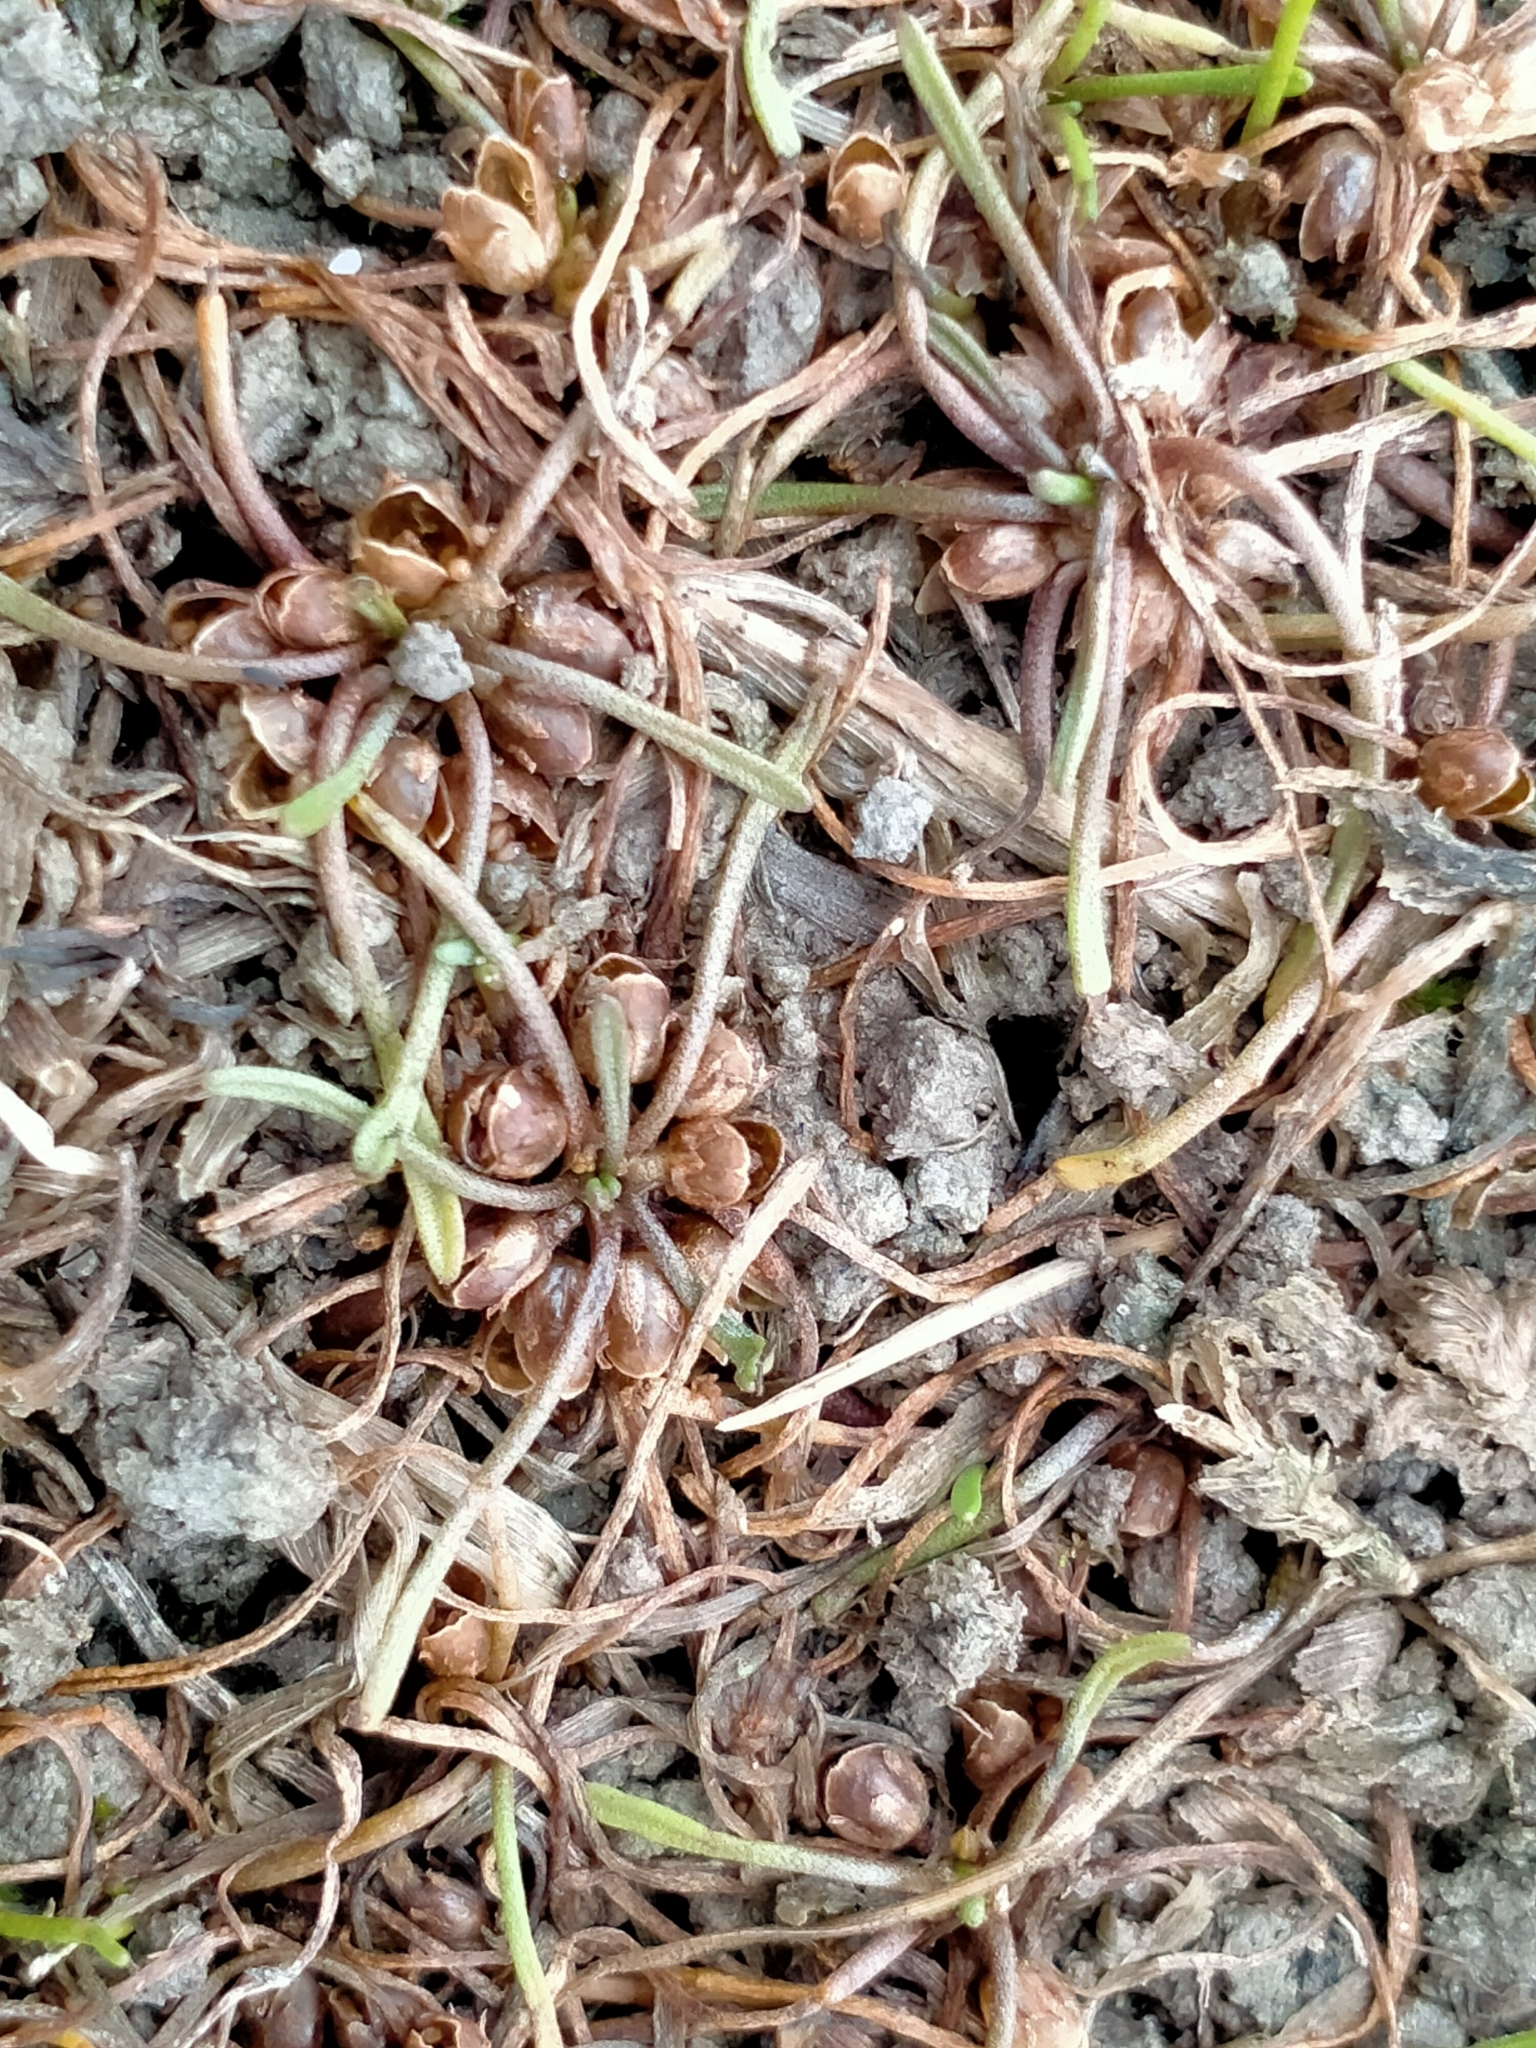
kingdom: Plantae
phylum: Tracheophyta
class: Magnoliopsida
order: Lamiales
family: Scrophulariaceae
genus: Limosella
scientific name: Limosella australis
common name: Welsh mudwort
